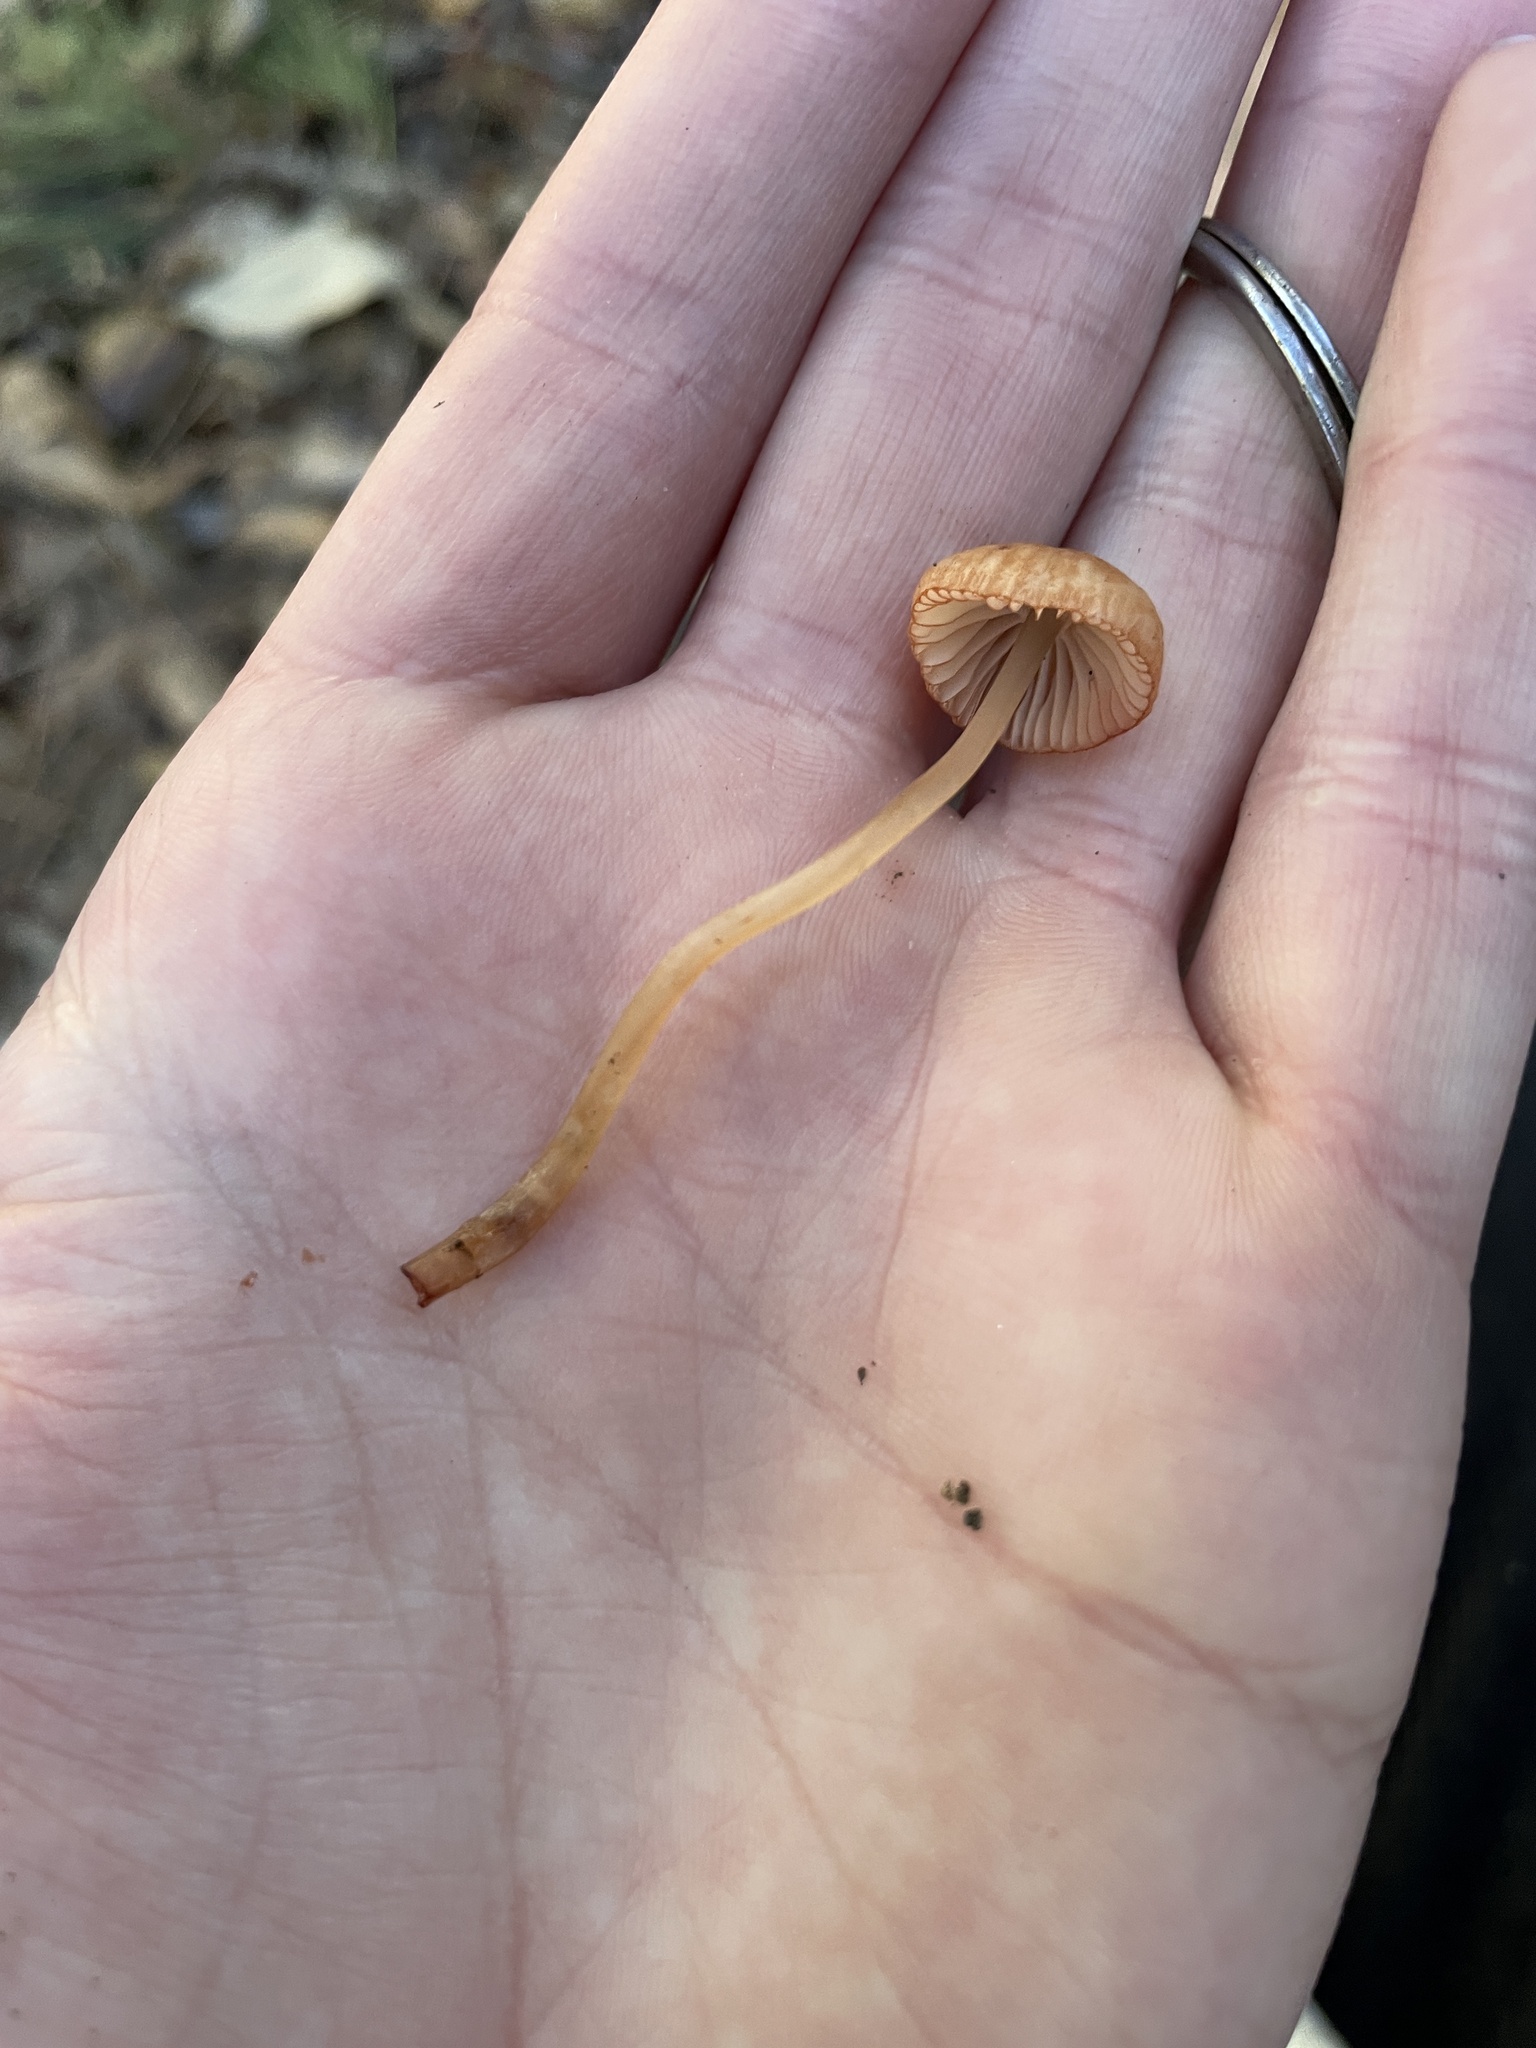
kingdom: Fungi
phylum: Basidiomycota
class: Agaricomycetes
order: Agaricales
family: Mycenaceae
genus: Mycena
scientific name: Mycena
